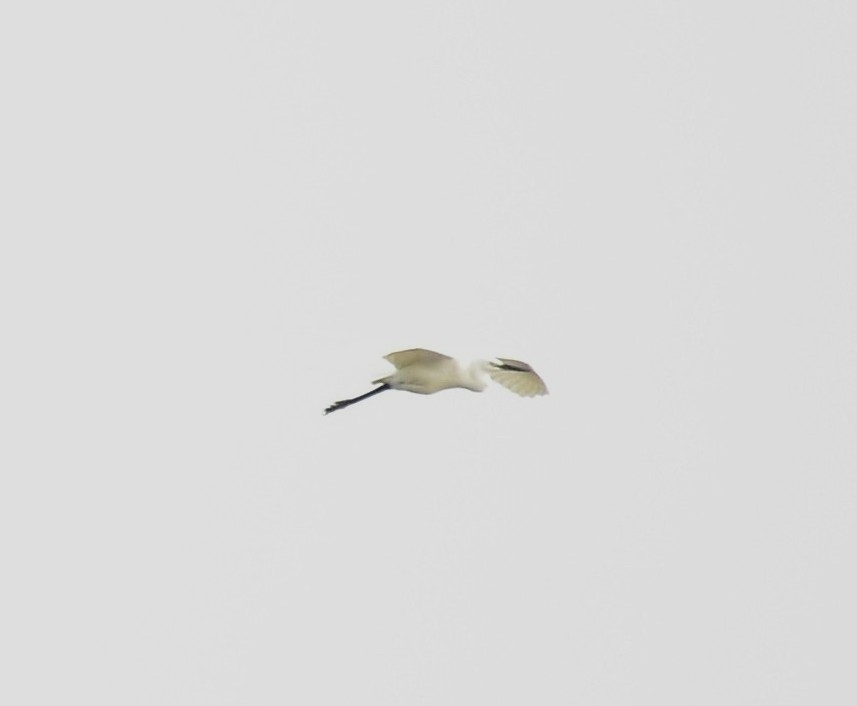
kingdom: Animalia
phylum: Chordata
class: Aves
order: Pelecaniformes
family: Ardeidae
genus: Egretta
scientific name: Egretta garzetta
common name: Little egret
